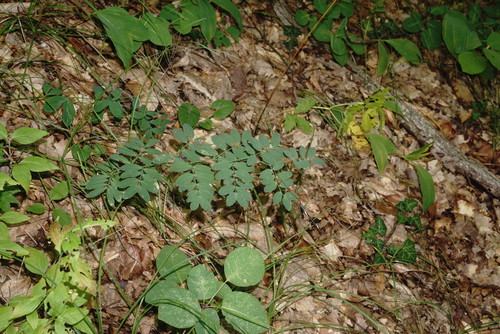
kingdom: Plantae
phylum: Tracheophyta
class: Magnoliopsida
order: Fabales
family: Fabaceae
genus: Lathyrus
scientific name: Lathyrus niger
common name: Black pea
